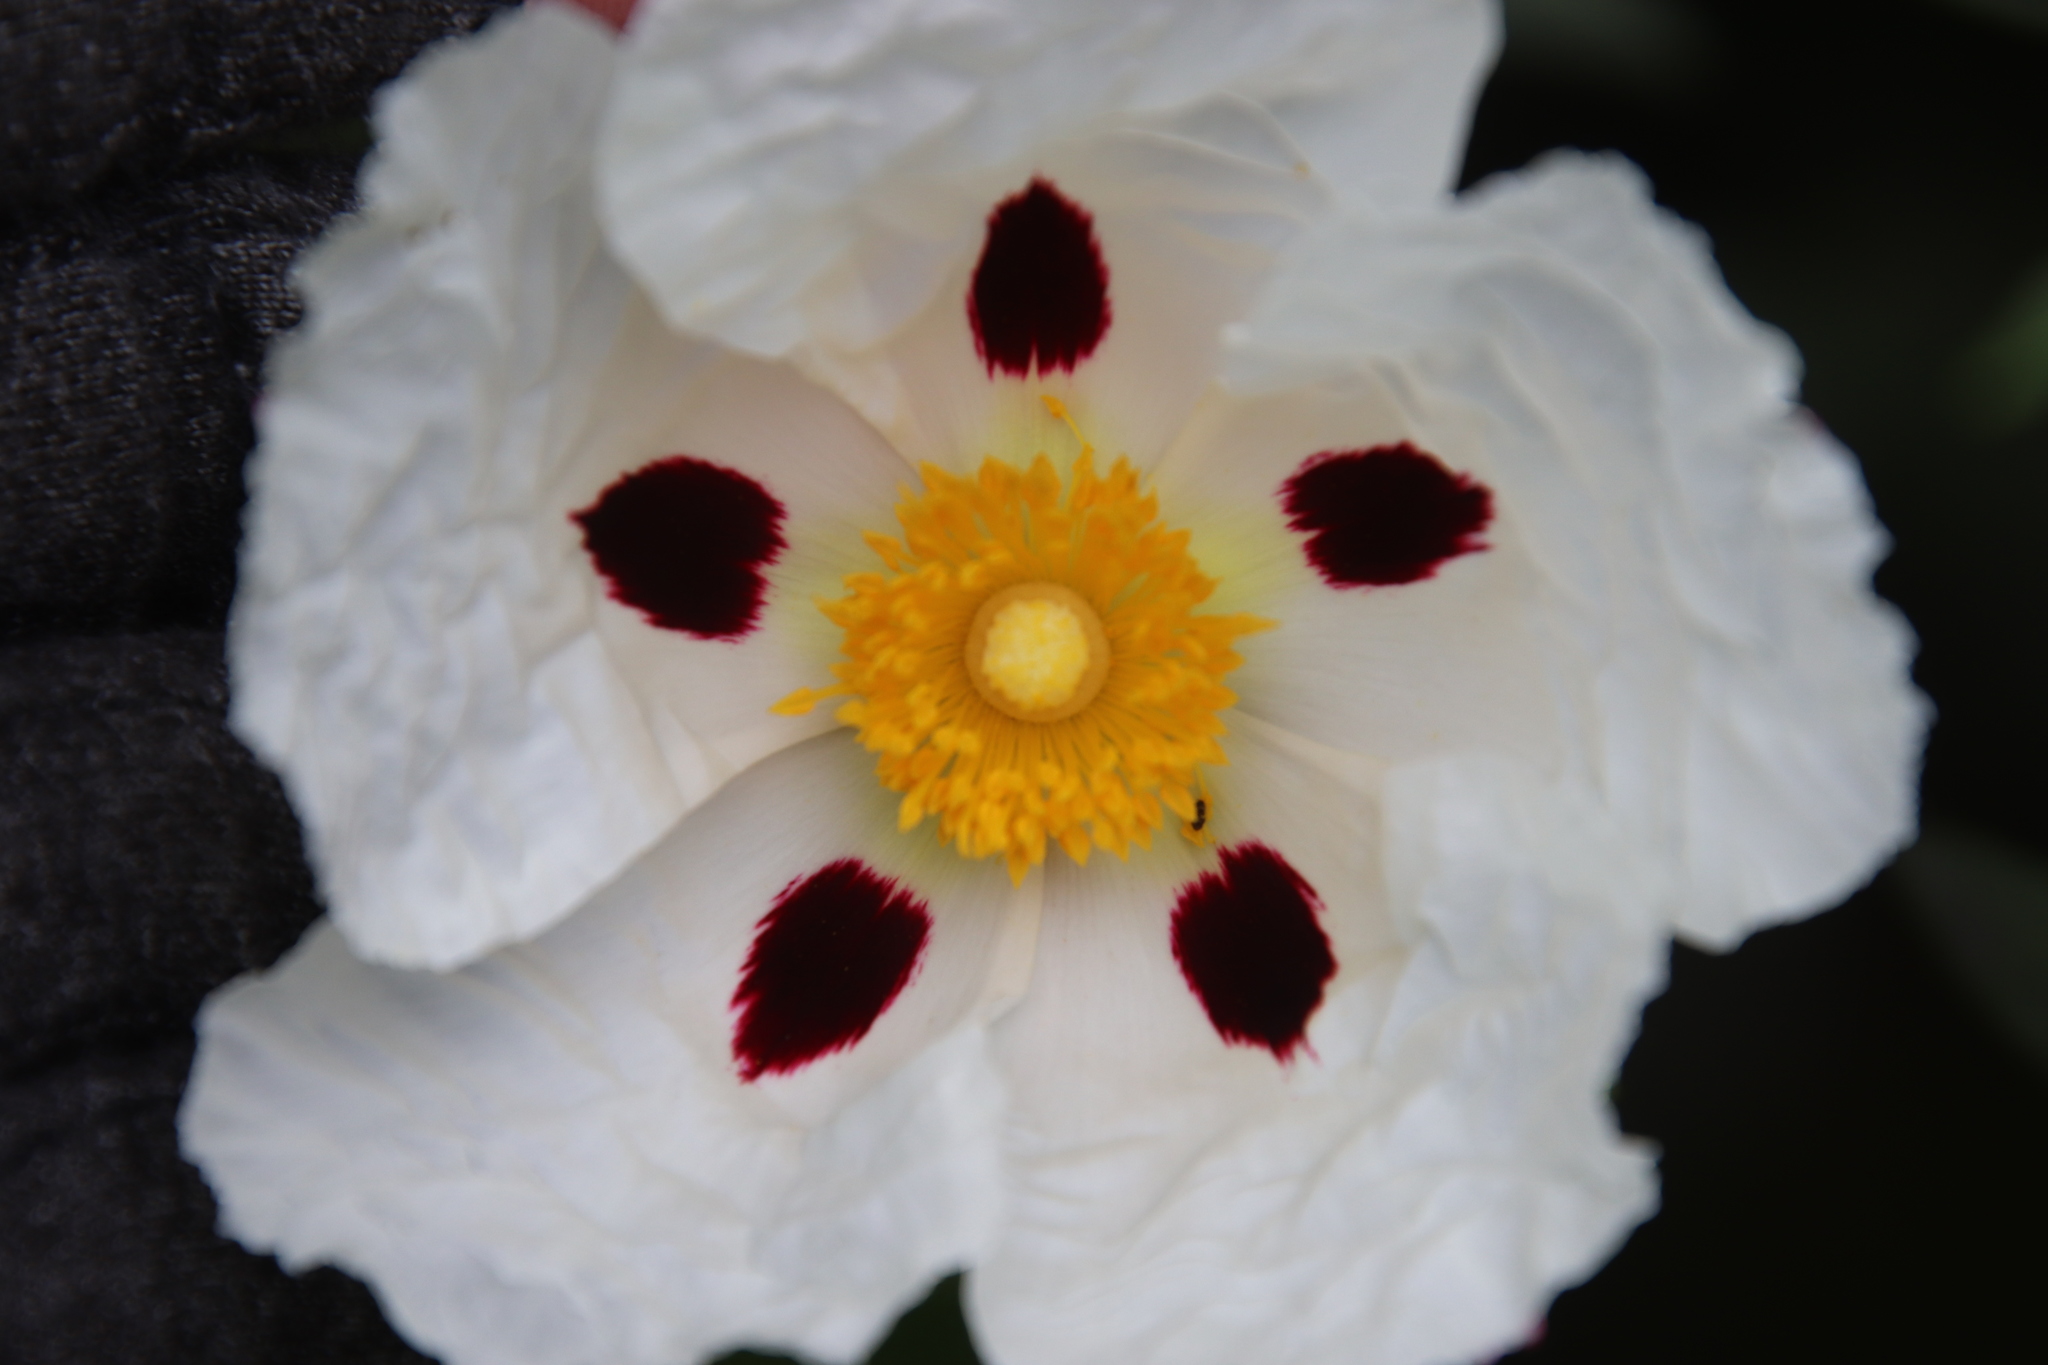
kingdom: Plantae
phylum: Tracheophyta
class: Magnoliopsida
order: Malvales
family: Cistaceae
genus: Cistus
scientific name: Cistus ladanifer
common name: Common gum cistus
